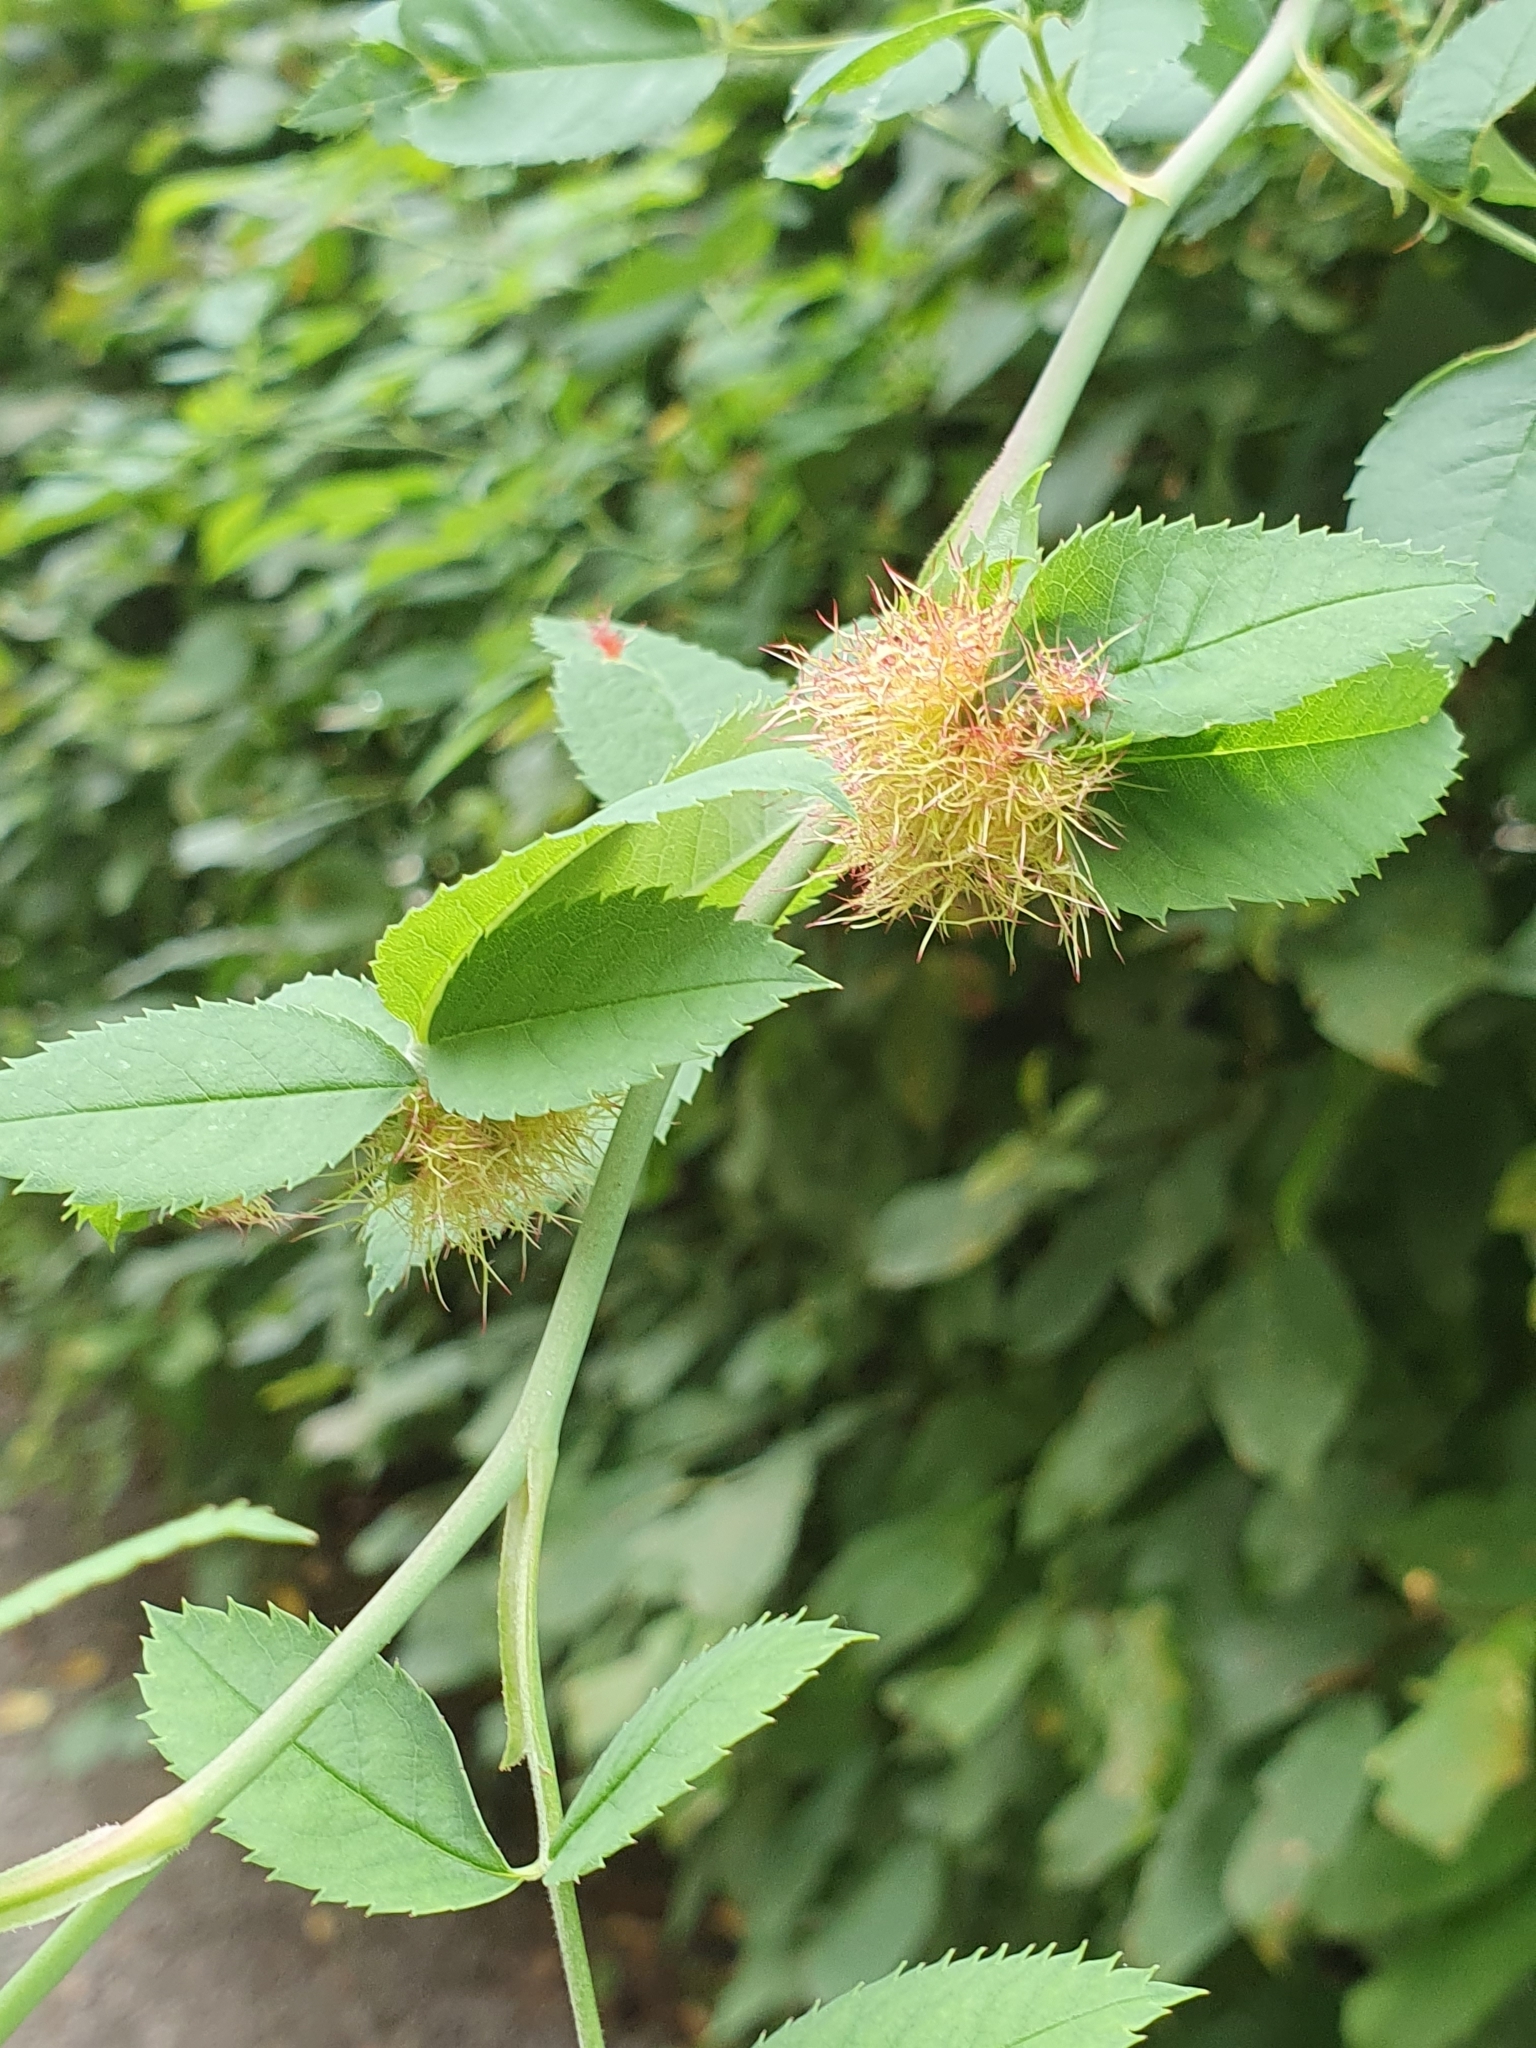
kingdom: Animalia
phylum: Arthropoda
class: Insecta
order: Hymenoptera
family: Cynipidae
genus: Diplolepis
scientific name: Diplolepis rosae
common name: Bedeguar gall
